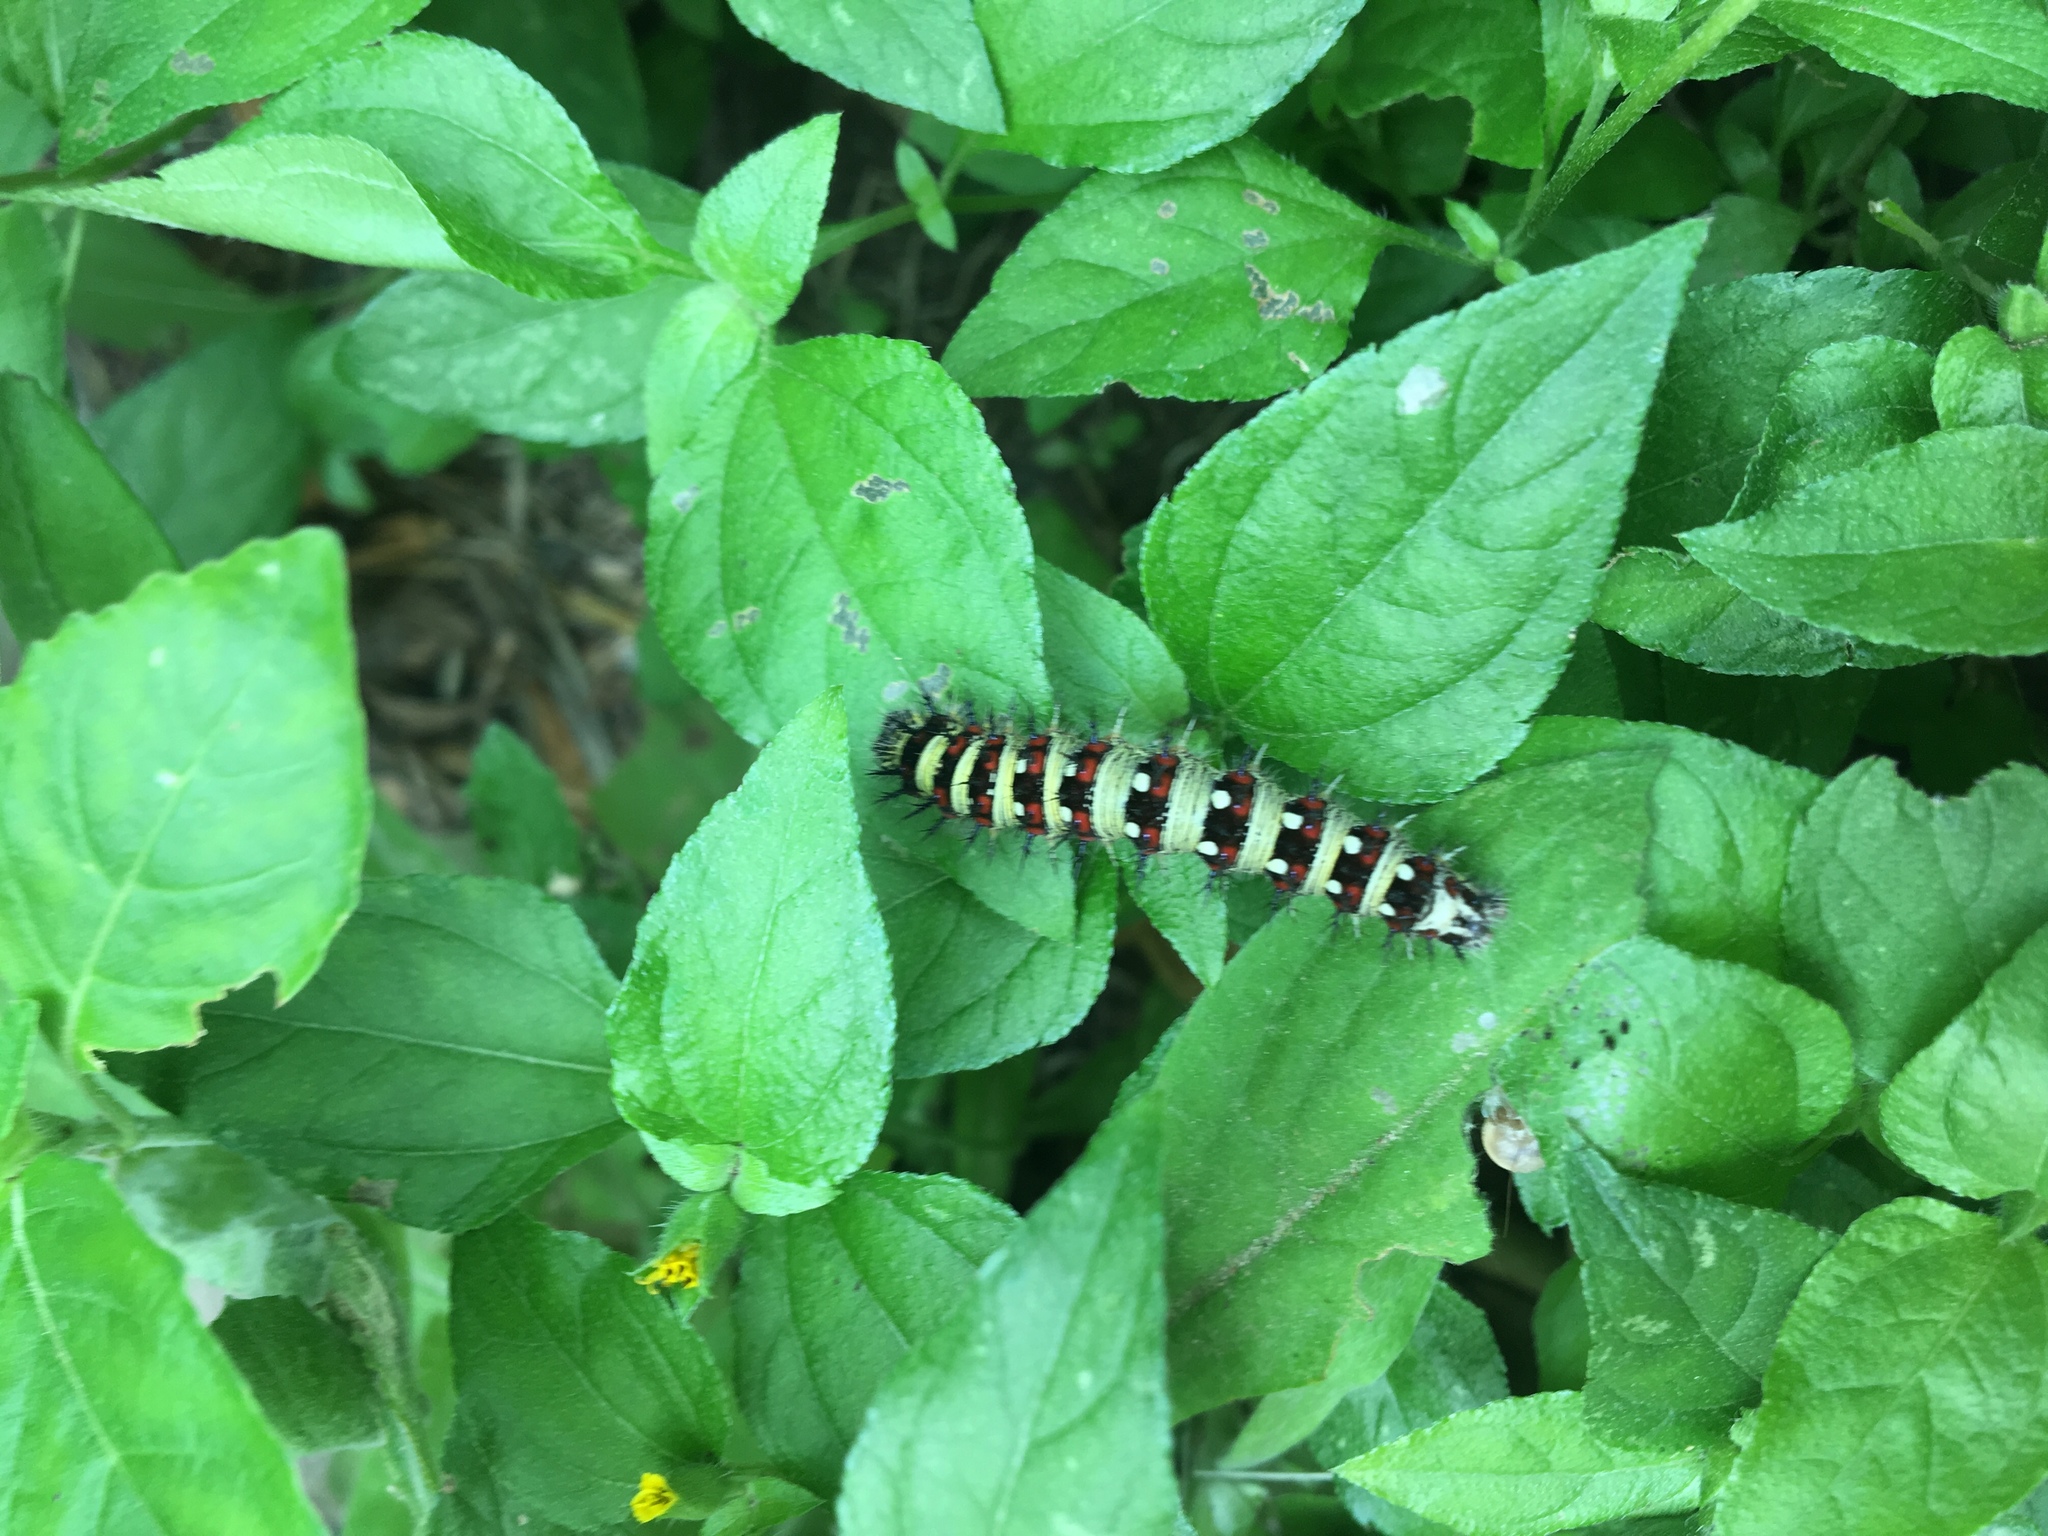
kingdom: Animalia
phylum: Arthropoda
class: Insecta
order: Lepidoptera
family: Nymphalidae
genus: Vanessa
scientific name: Vanessa virginiensis
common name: American lady
